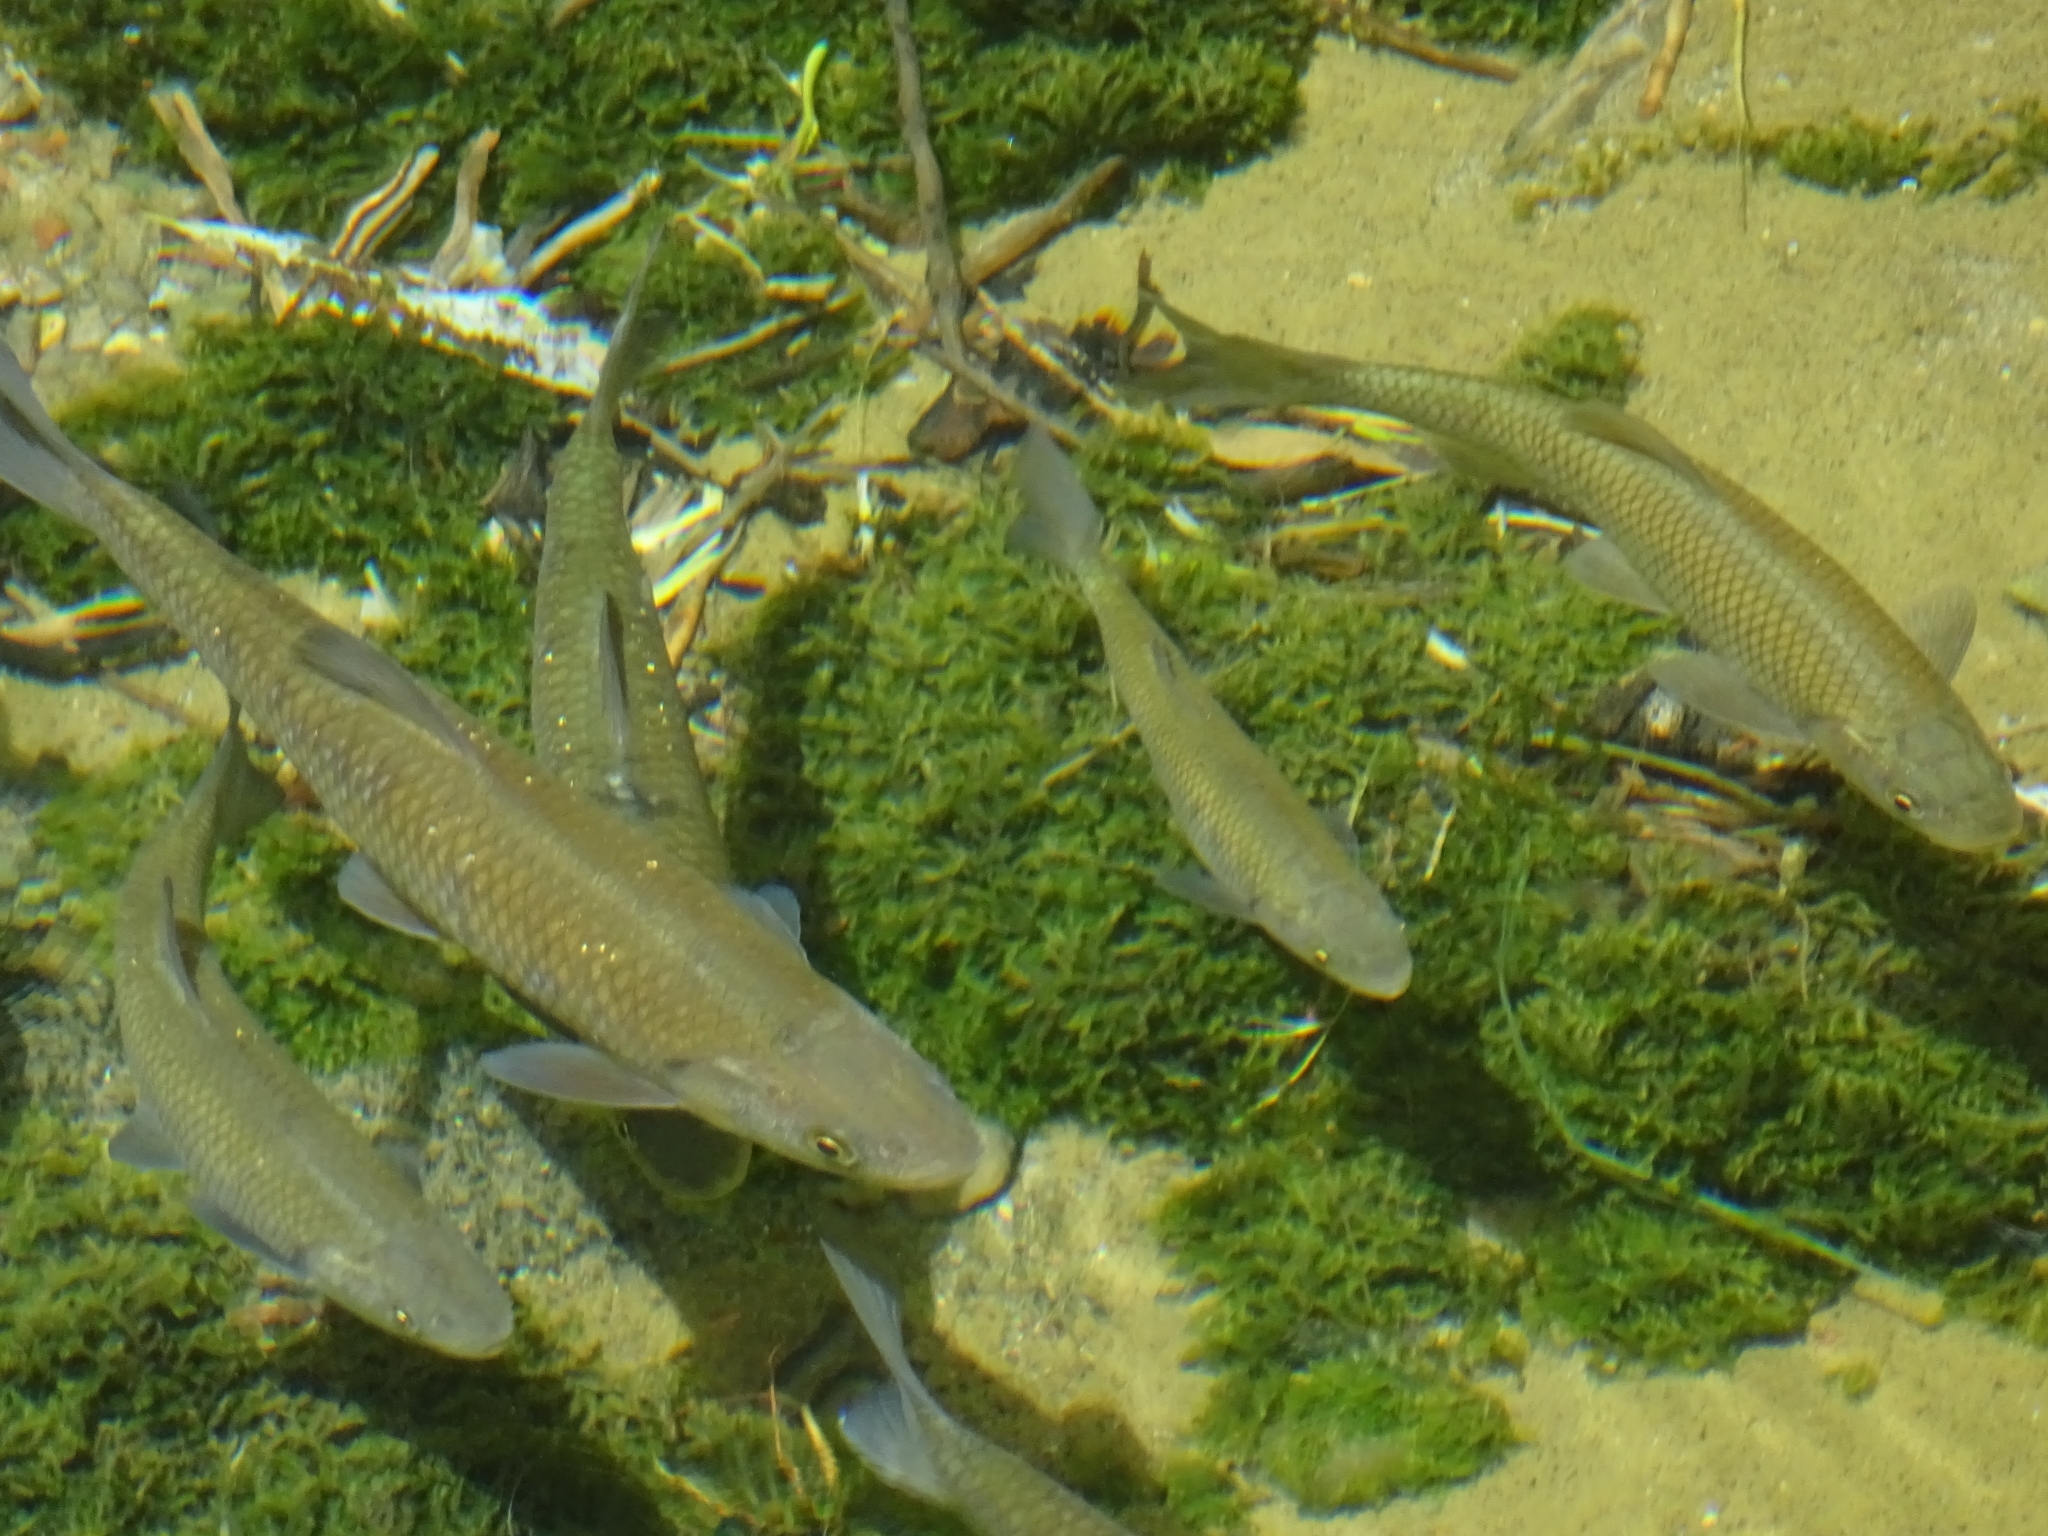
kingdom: Animalia
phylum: Chordata
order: Cypriniformes
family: Cyprinidae
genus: Squalius
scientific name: Squalius squalus
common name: Italian chub
